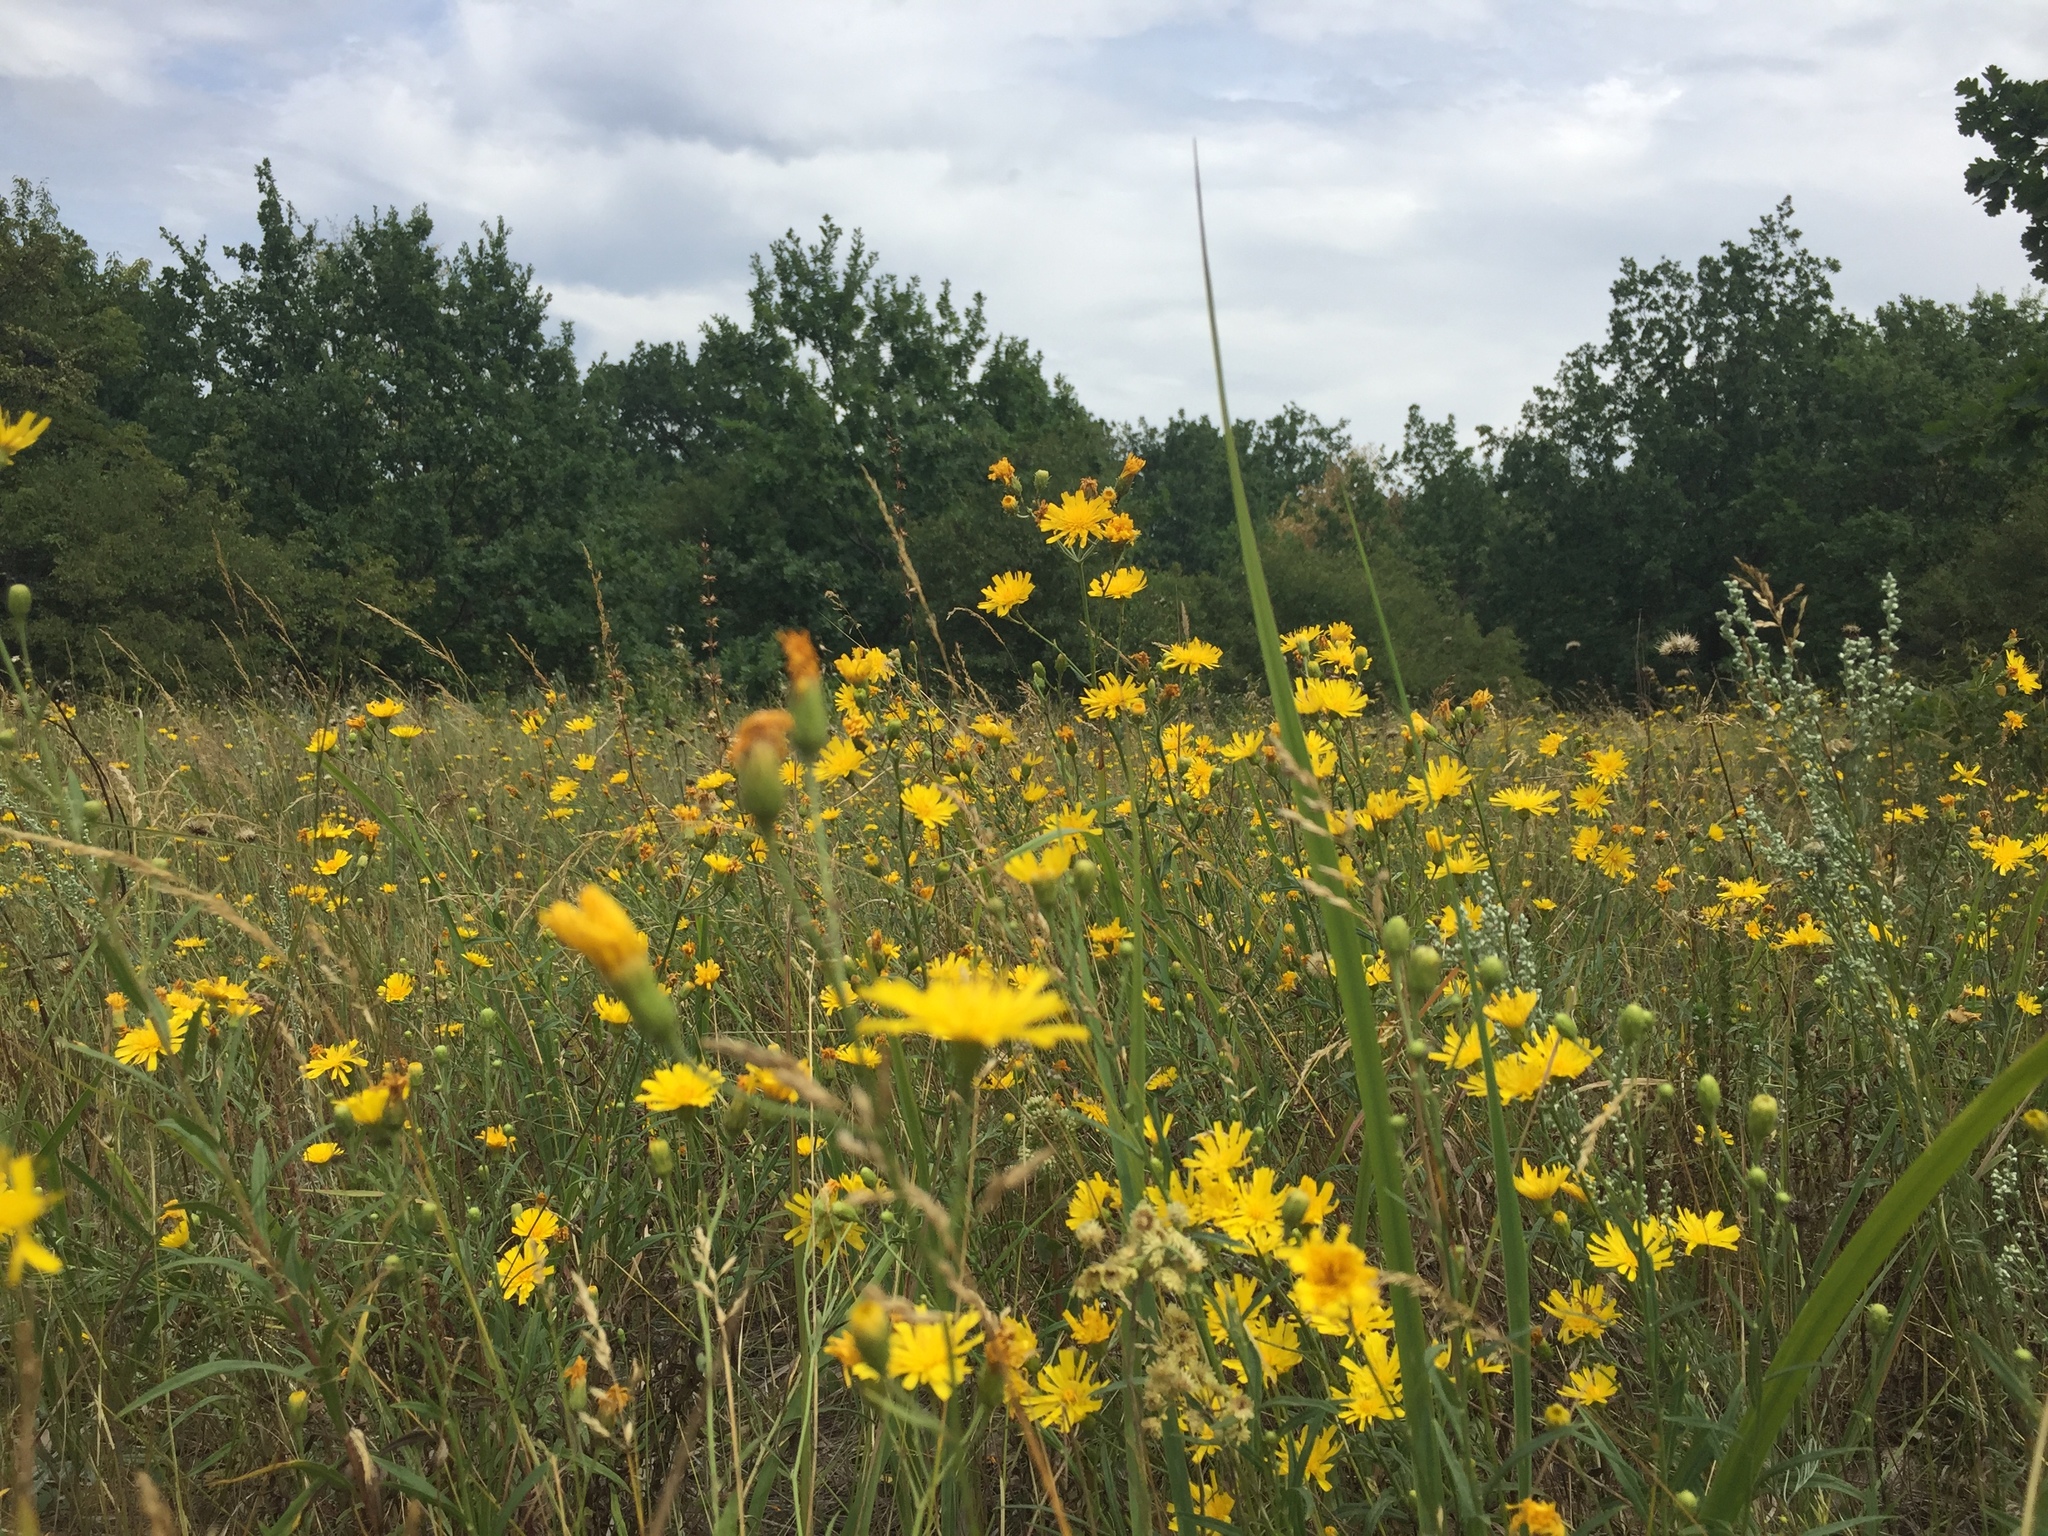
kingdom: Plantae
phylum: Tracheophyta
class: Magnoliopsida
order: Asterales
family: Asteraceae
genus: Hieracium
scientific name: Hieracium umbellatum
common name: Northern hawkweed
